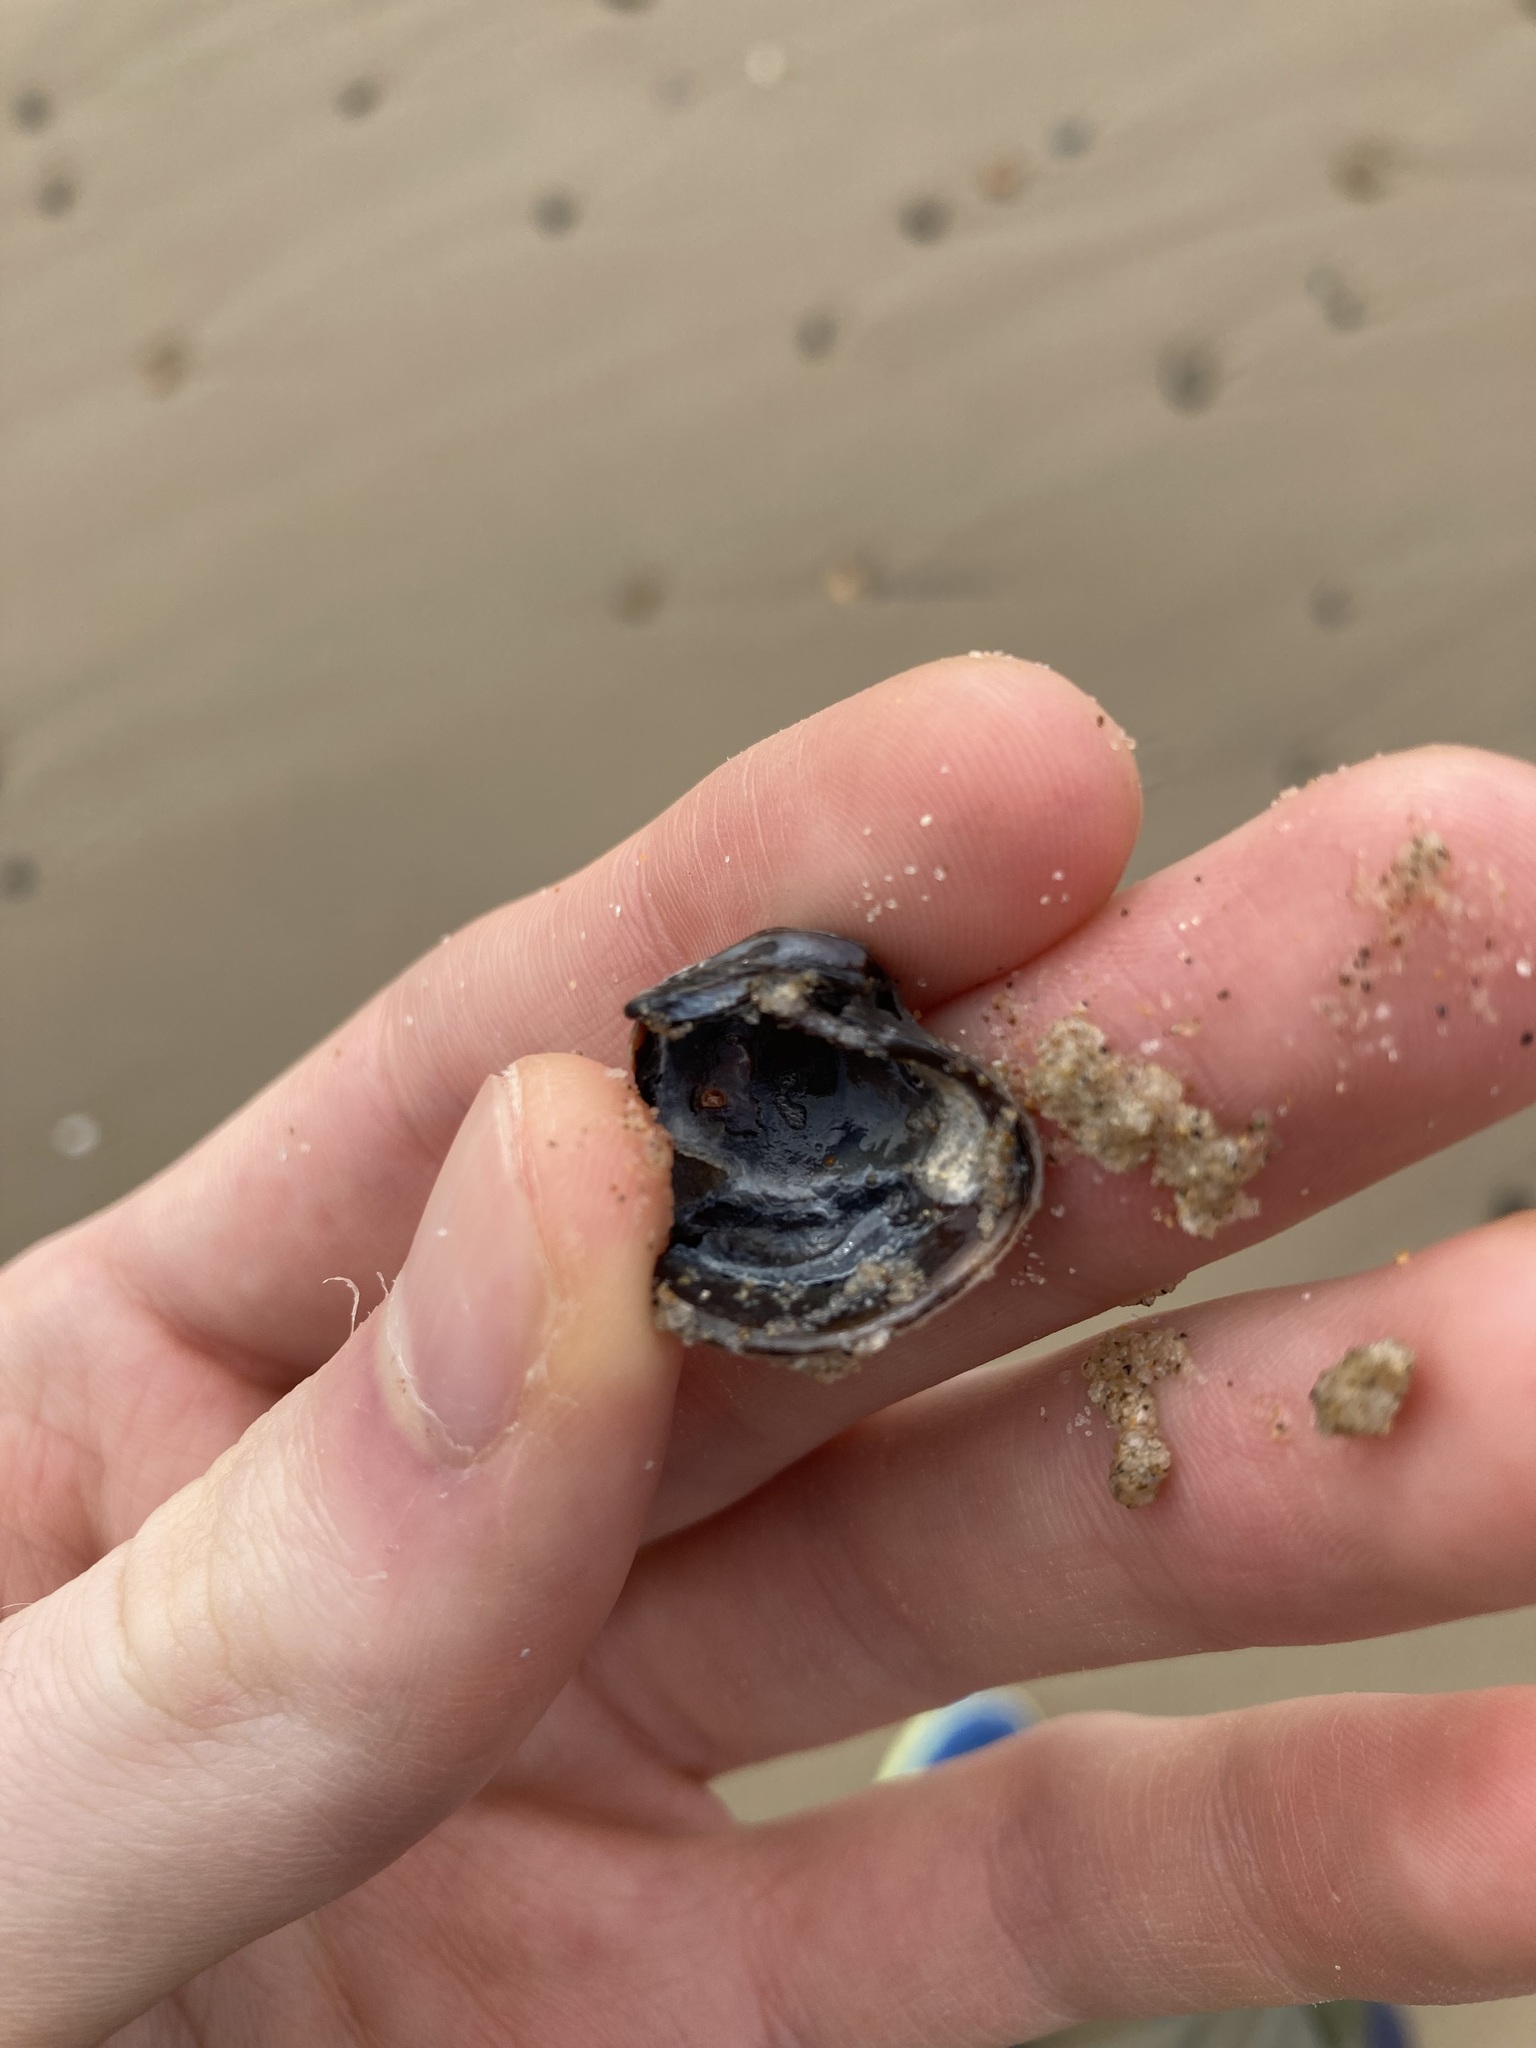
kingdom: Animalia
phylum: Mollusca
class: Bivalvia
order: Venerida
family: Veneridae
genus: Irus
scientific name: Irus cumingii
